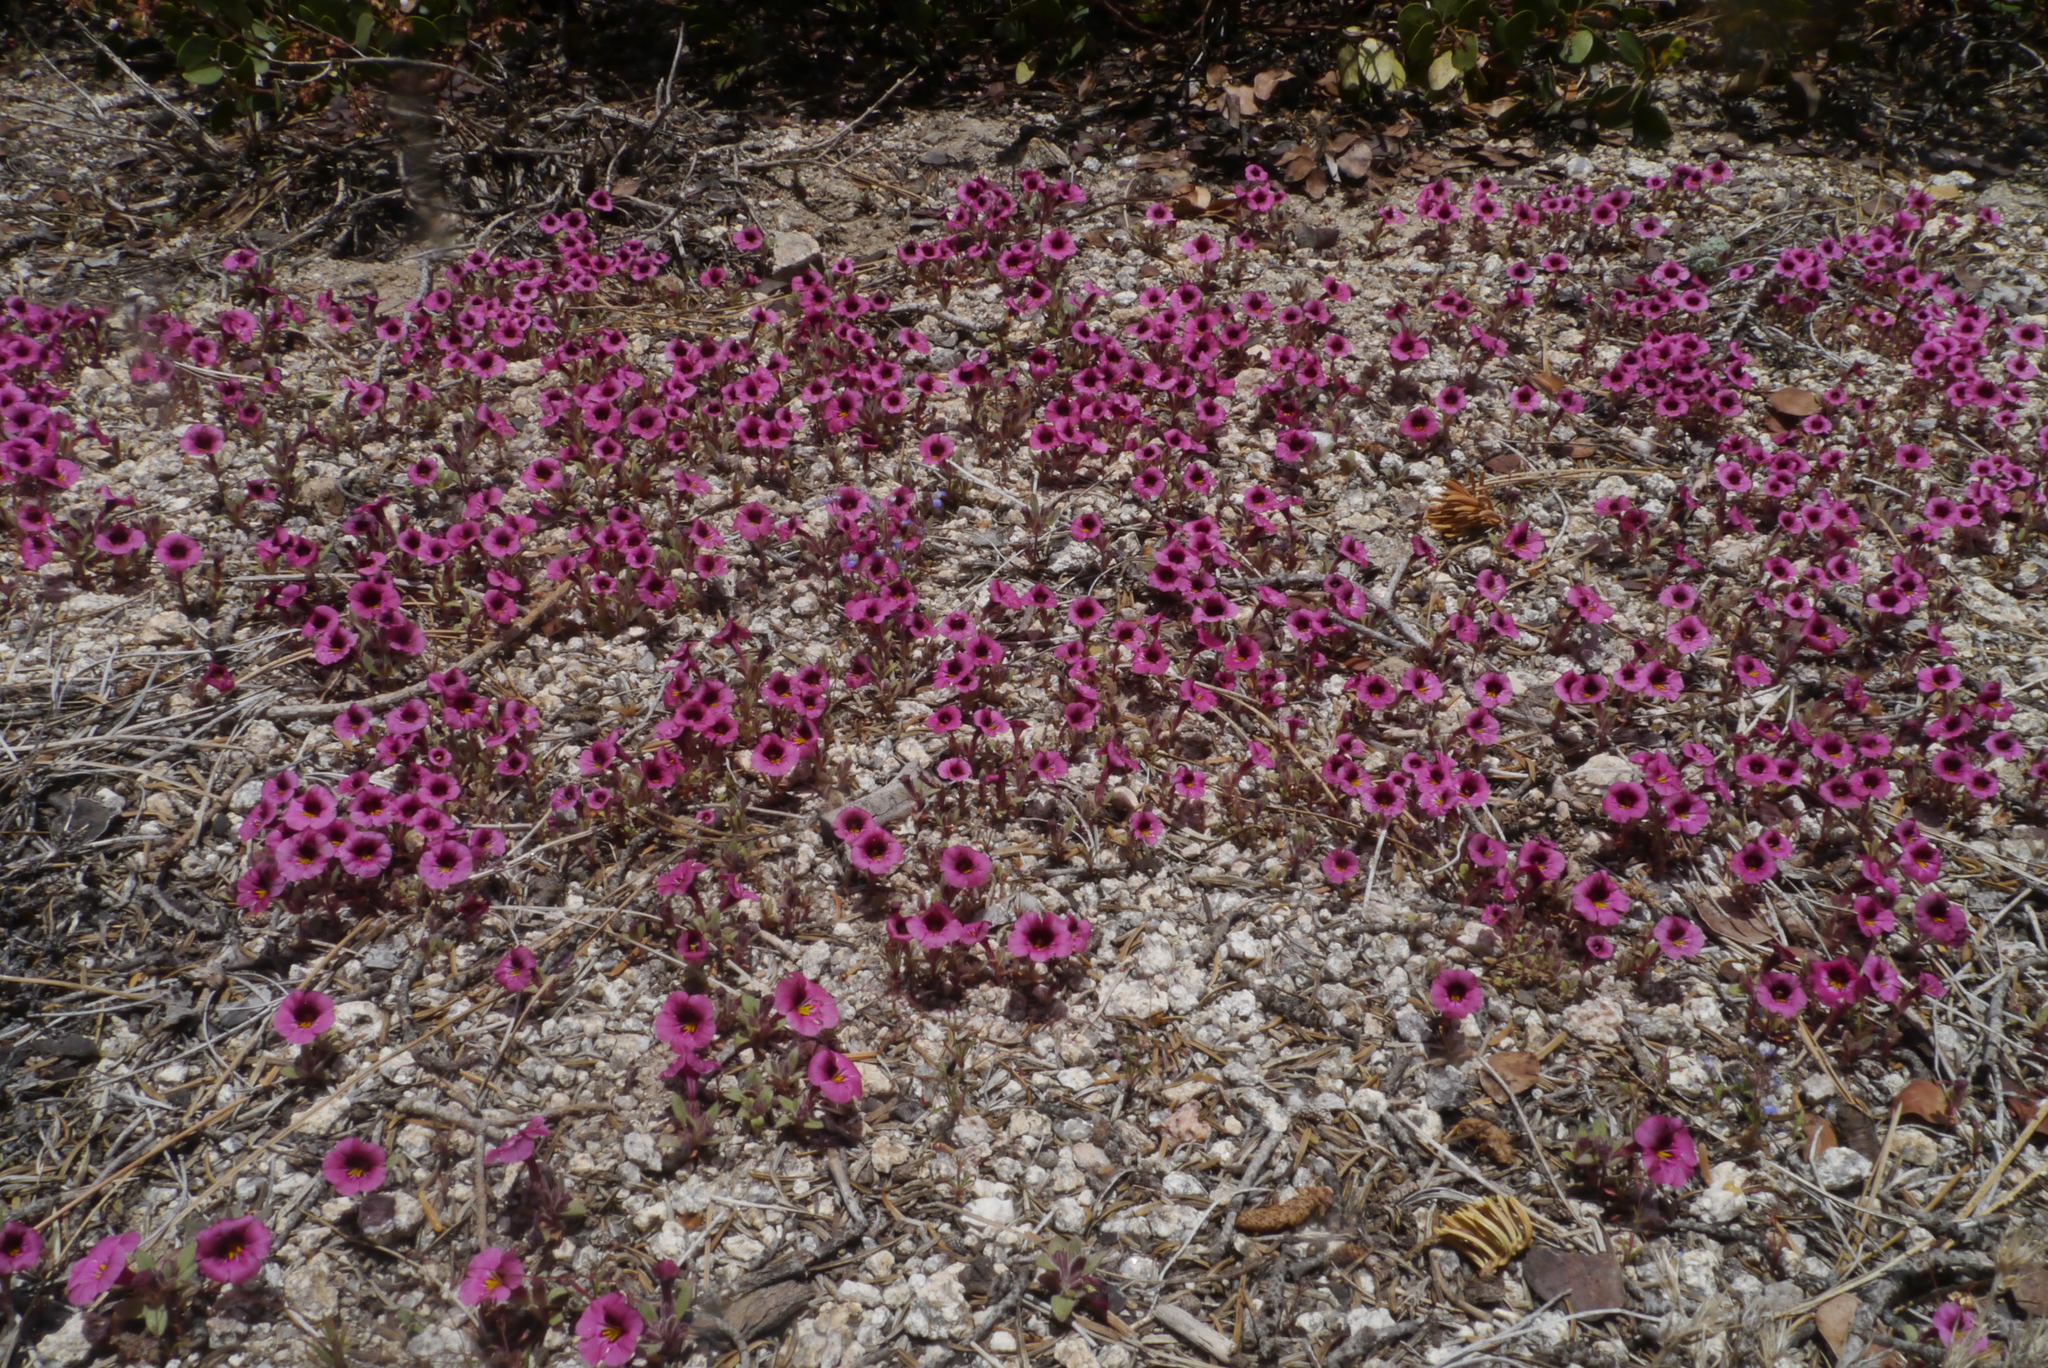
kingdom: Plantae
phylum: Tracheophyta
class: Magnoliopsida
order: Lamiales
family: Phrymaceae
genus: Diplacus
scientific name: Diplacus bicolor
